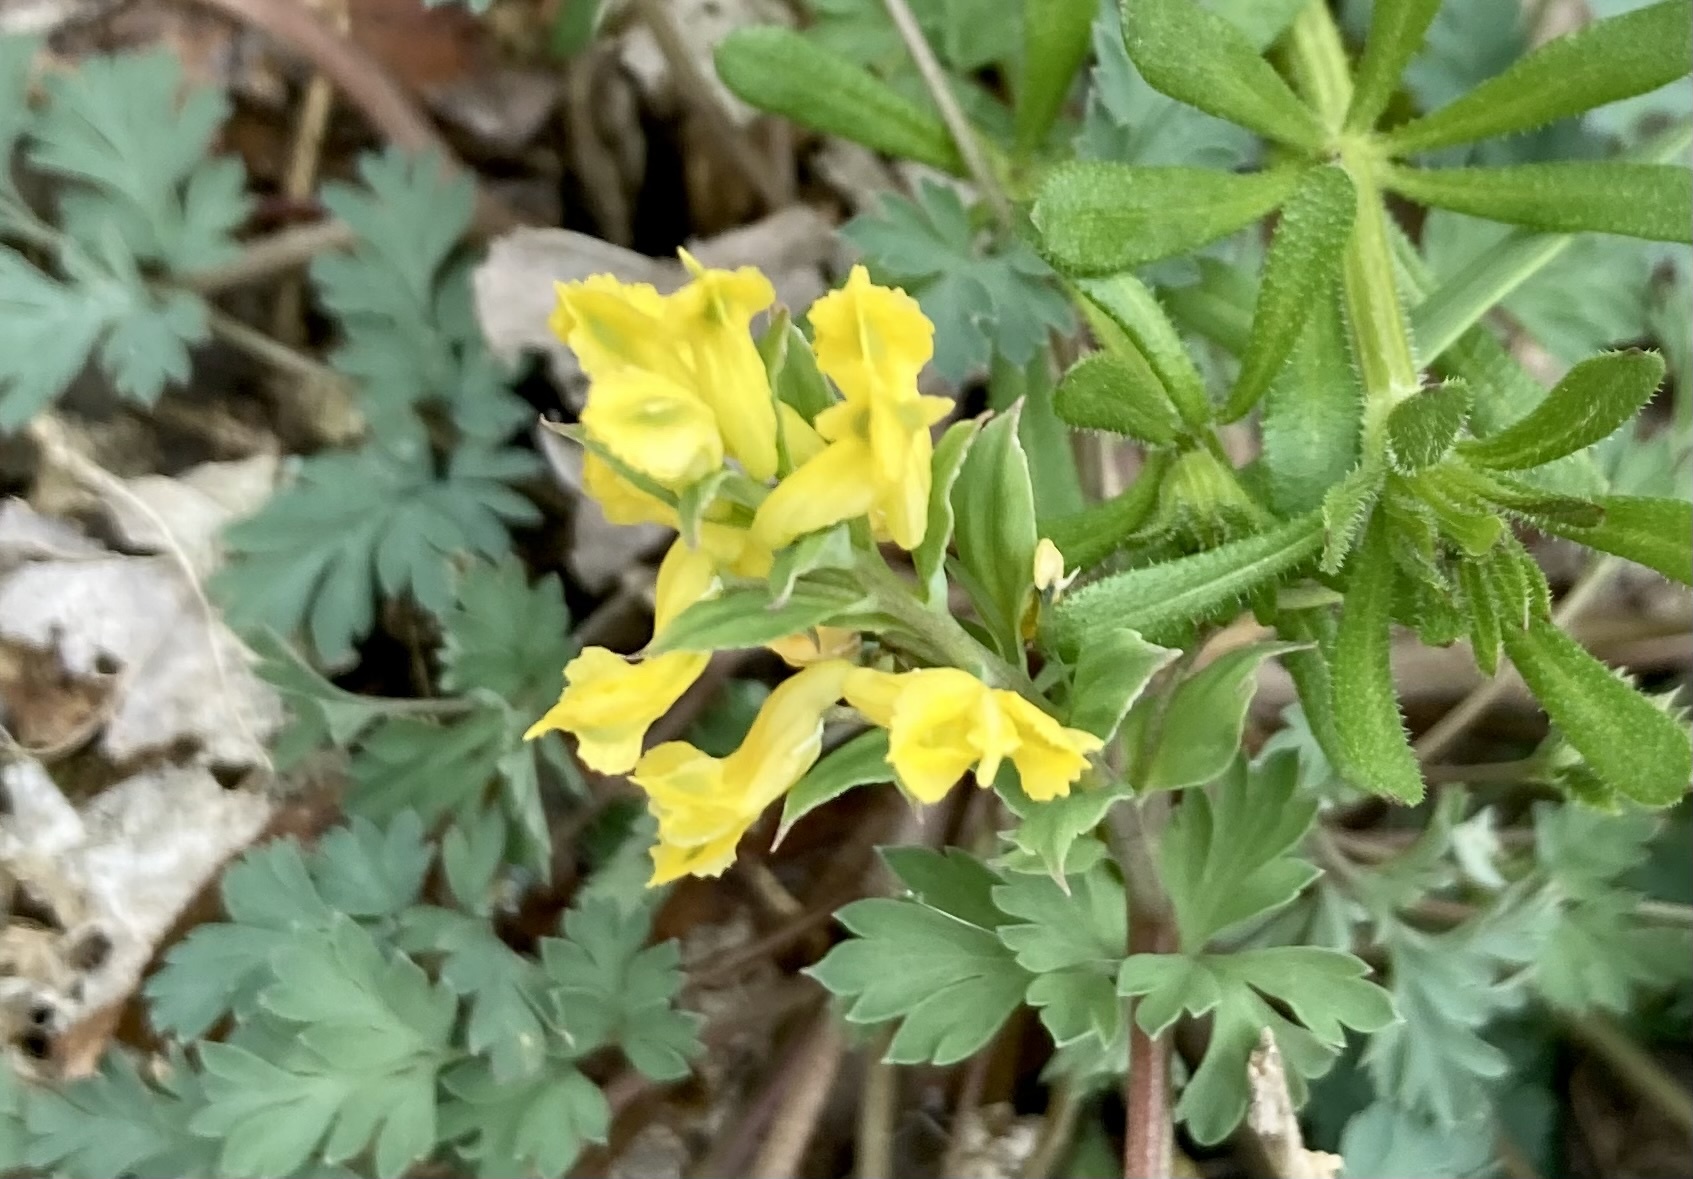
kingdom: Plantae
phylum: Tracheophyta
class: Magnoliopsida
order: Ranunculales
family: Papaveraceae
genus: Corydalis
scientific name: Corydalis flavula
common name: Yellow corydalis
